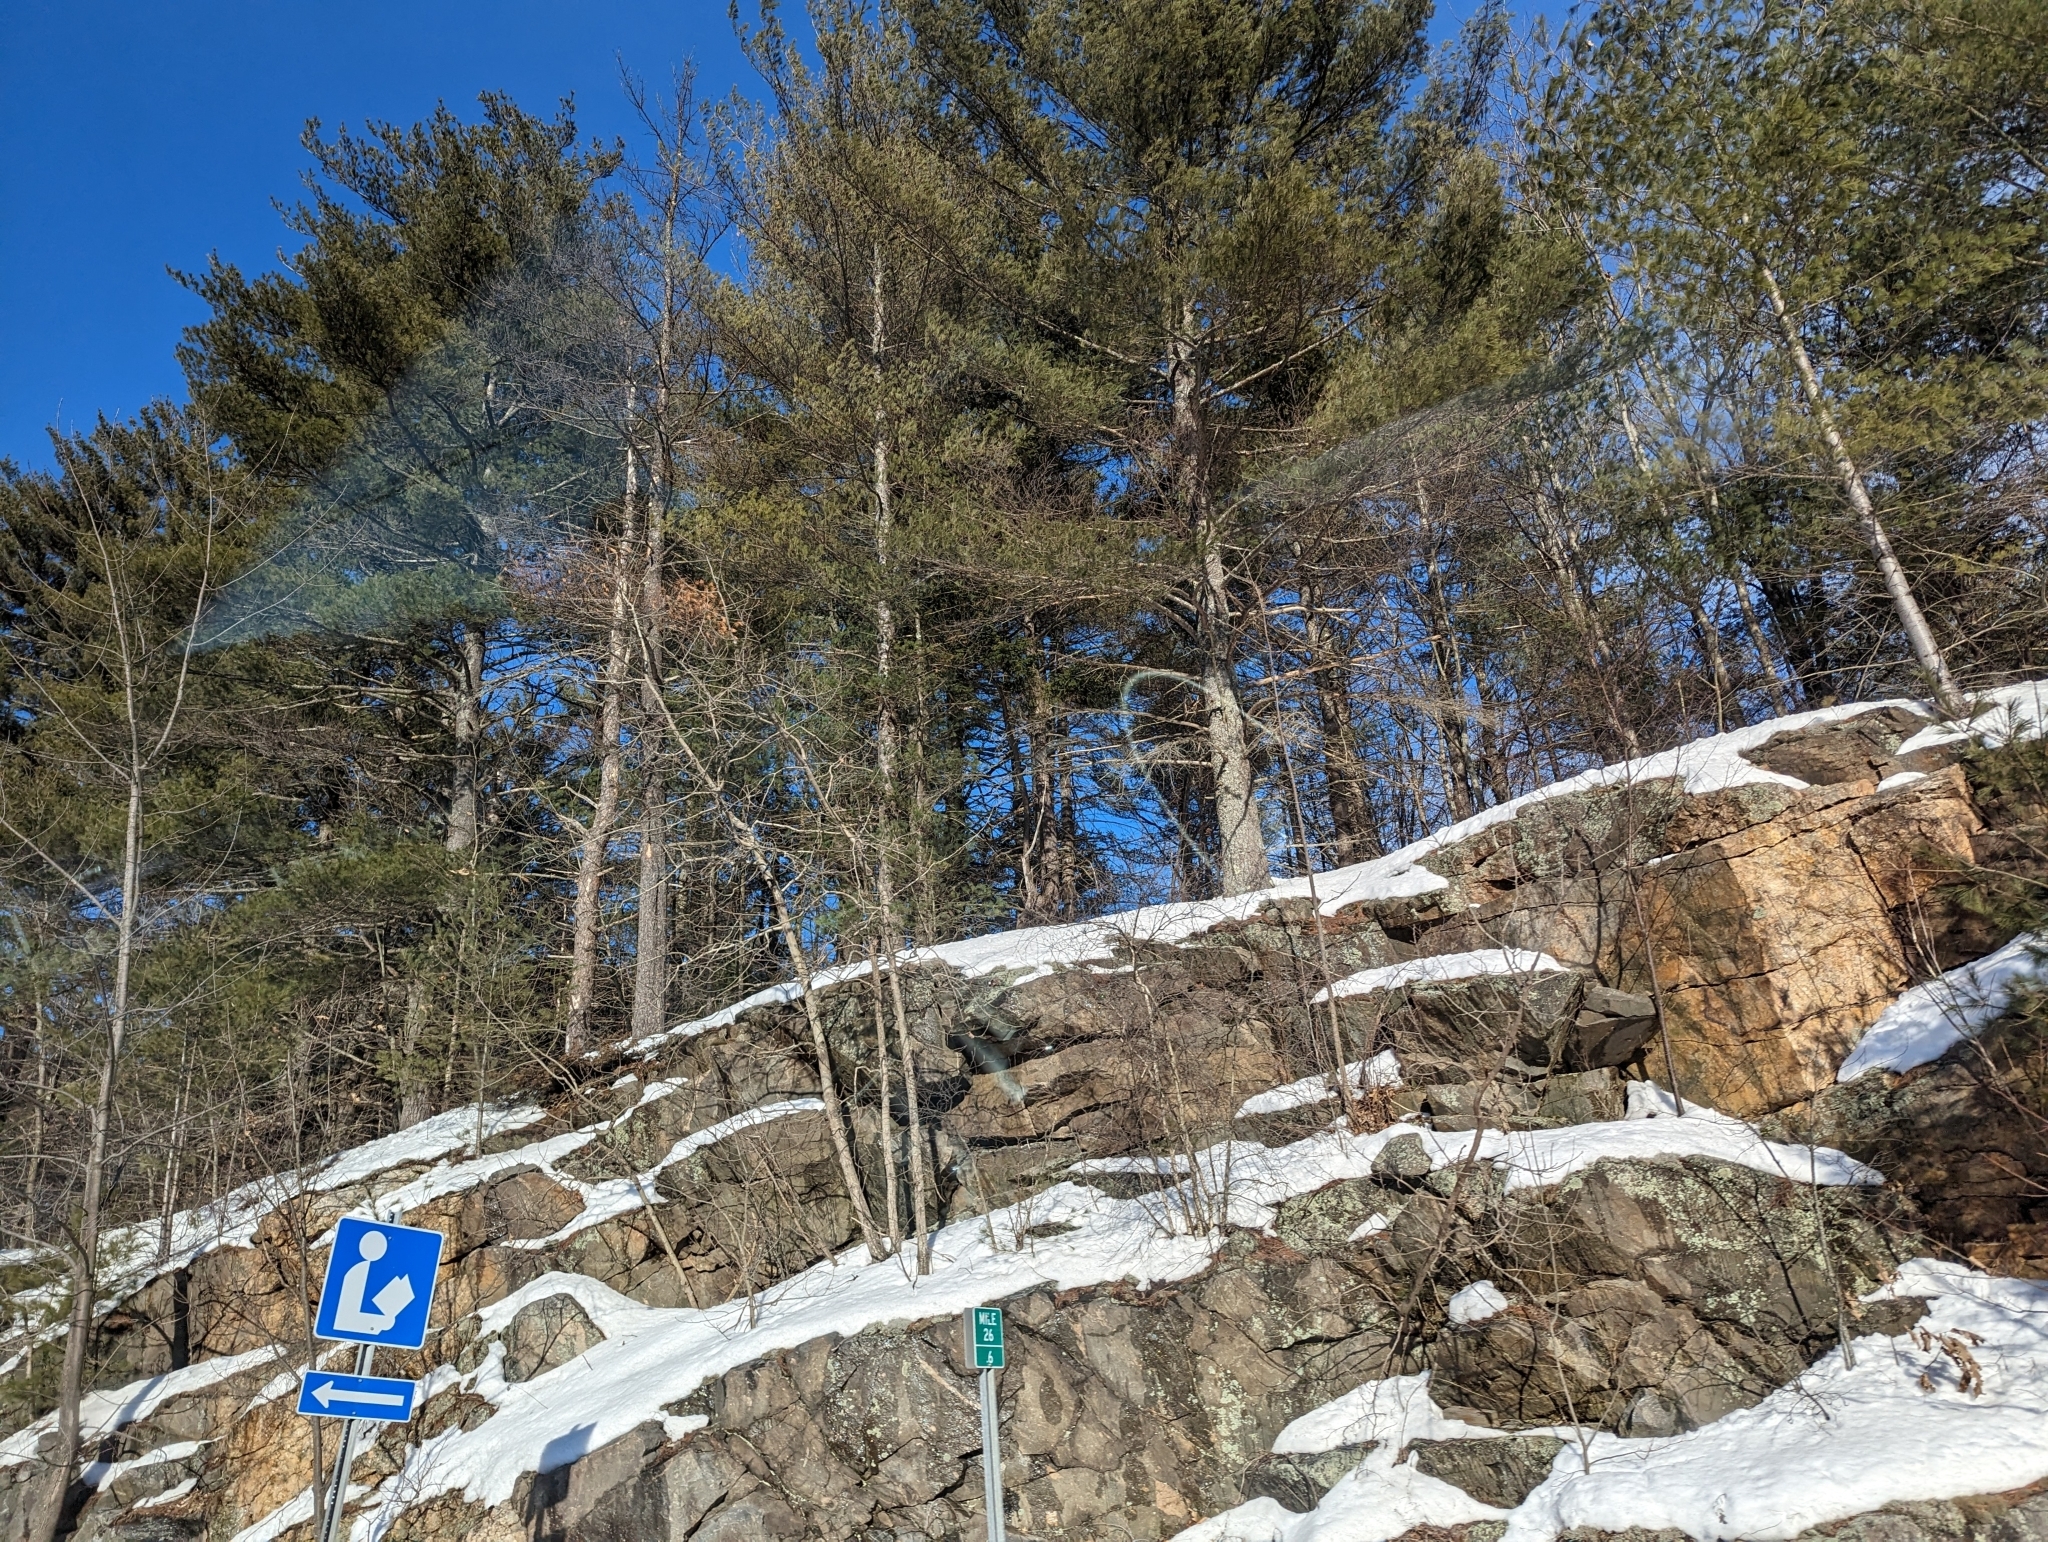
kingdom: Plantae
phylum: Tracheophyta
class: Pinopsida
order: Pinales
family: Pinaceae
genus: Pinus
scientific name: Pinus strobus
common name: Weymouth pine
